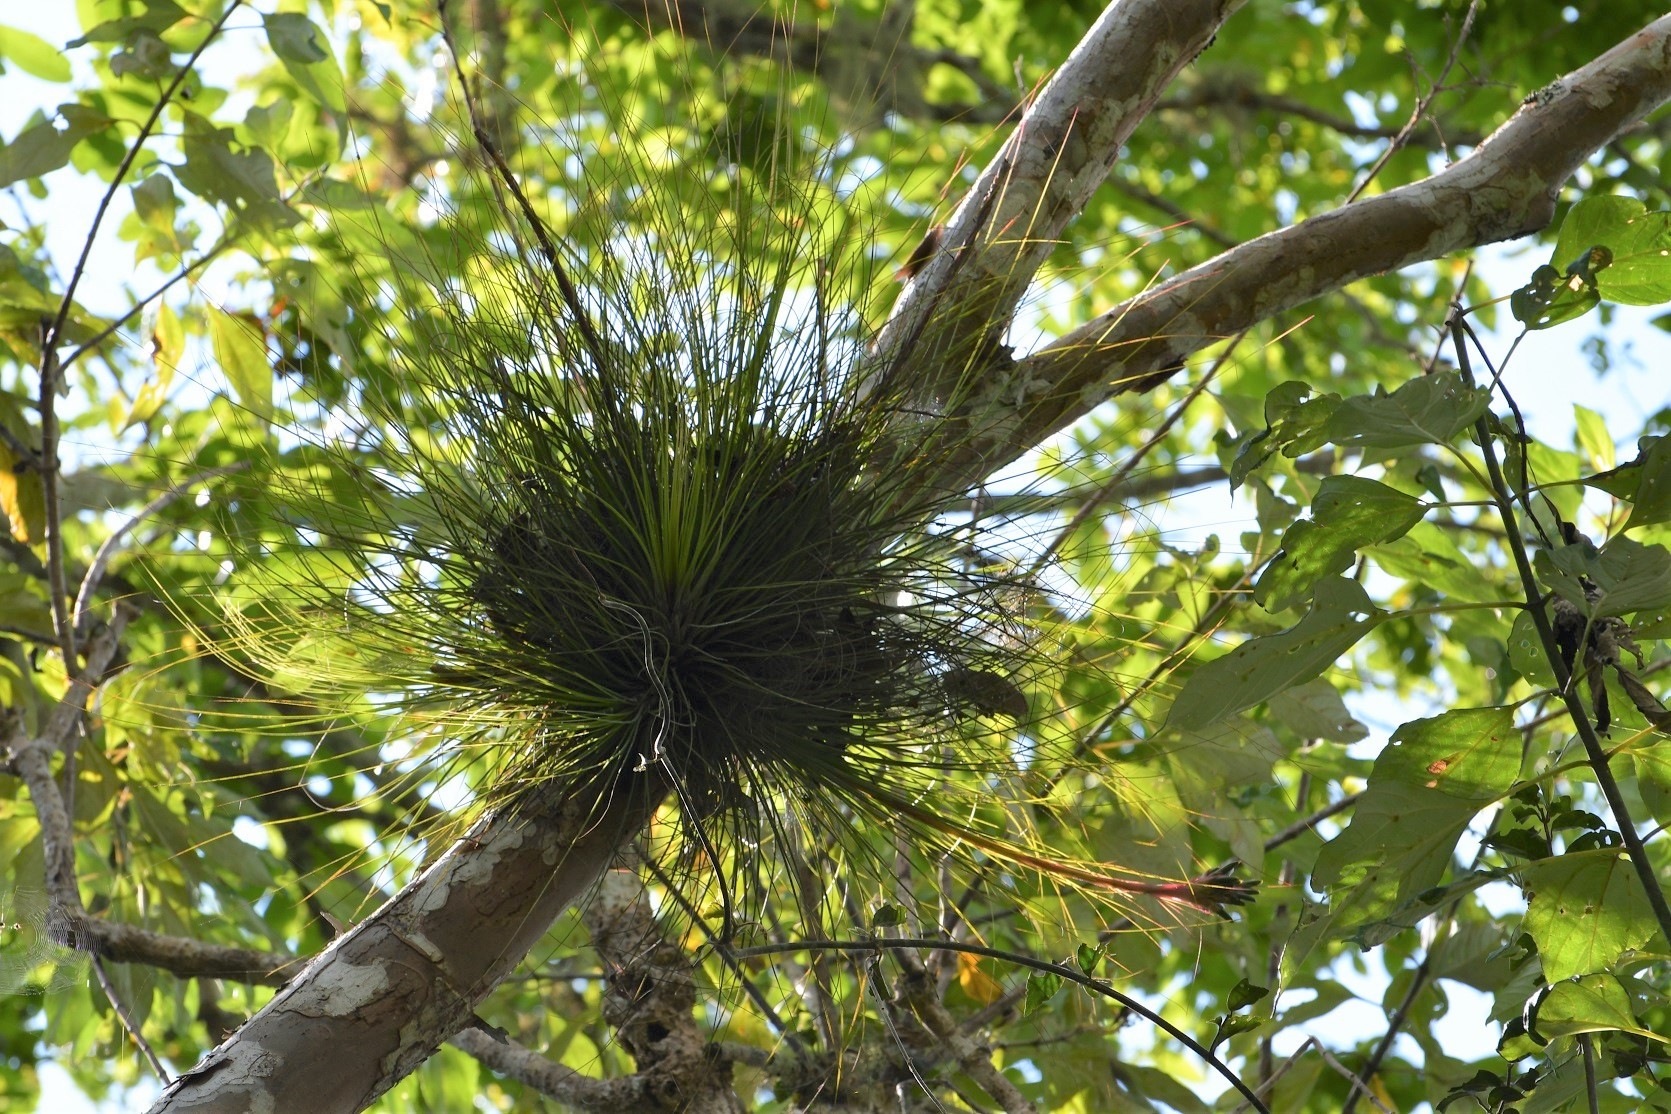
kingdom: Plantae
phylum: Tracheophyta
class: Liliopsida
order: Poales
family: Bromeliaceae
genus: Tillandsia
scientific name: Tillandsia juncea
